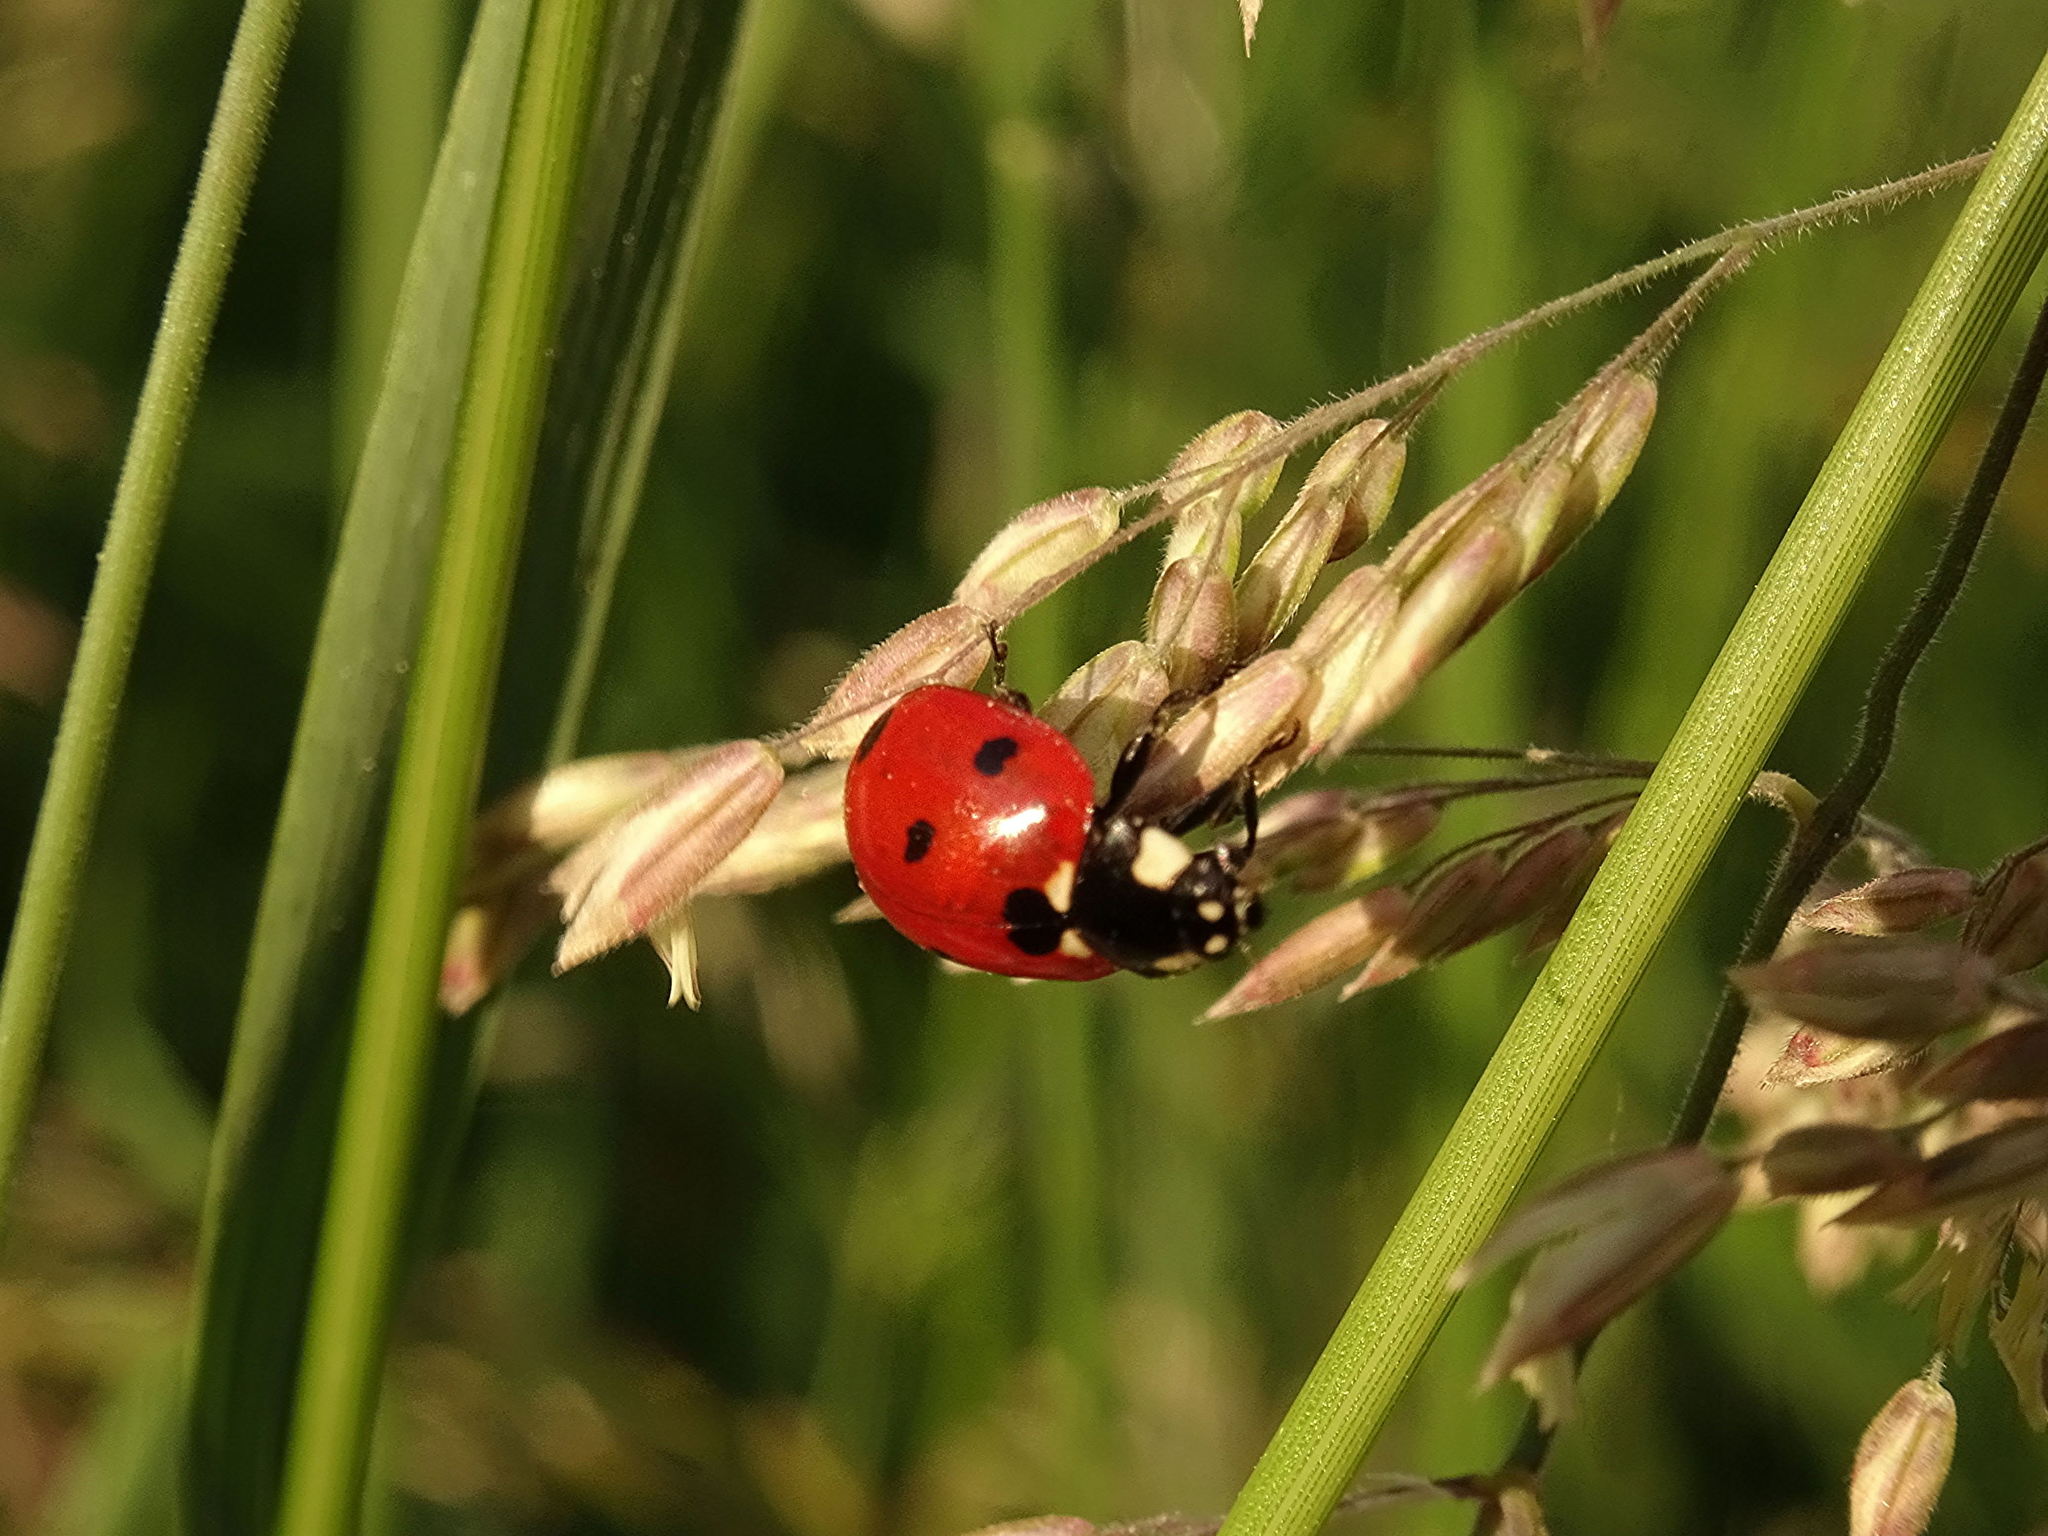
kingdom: Animalia
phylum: Arthropoda
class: Insecta
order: Coleoptera
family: Coccinellidae
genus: Coccinella
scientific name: Coccinella septempunctata
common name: Sevenspotted lady beetle
